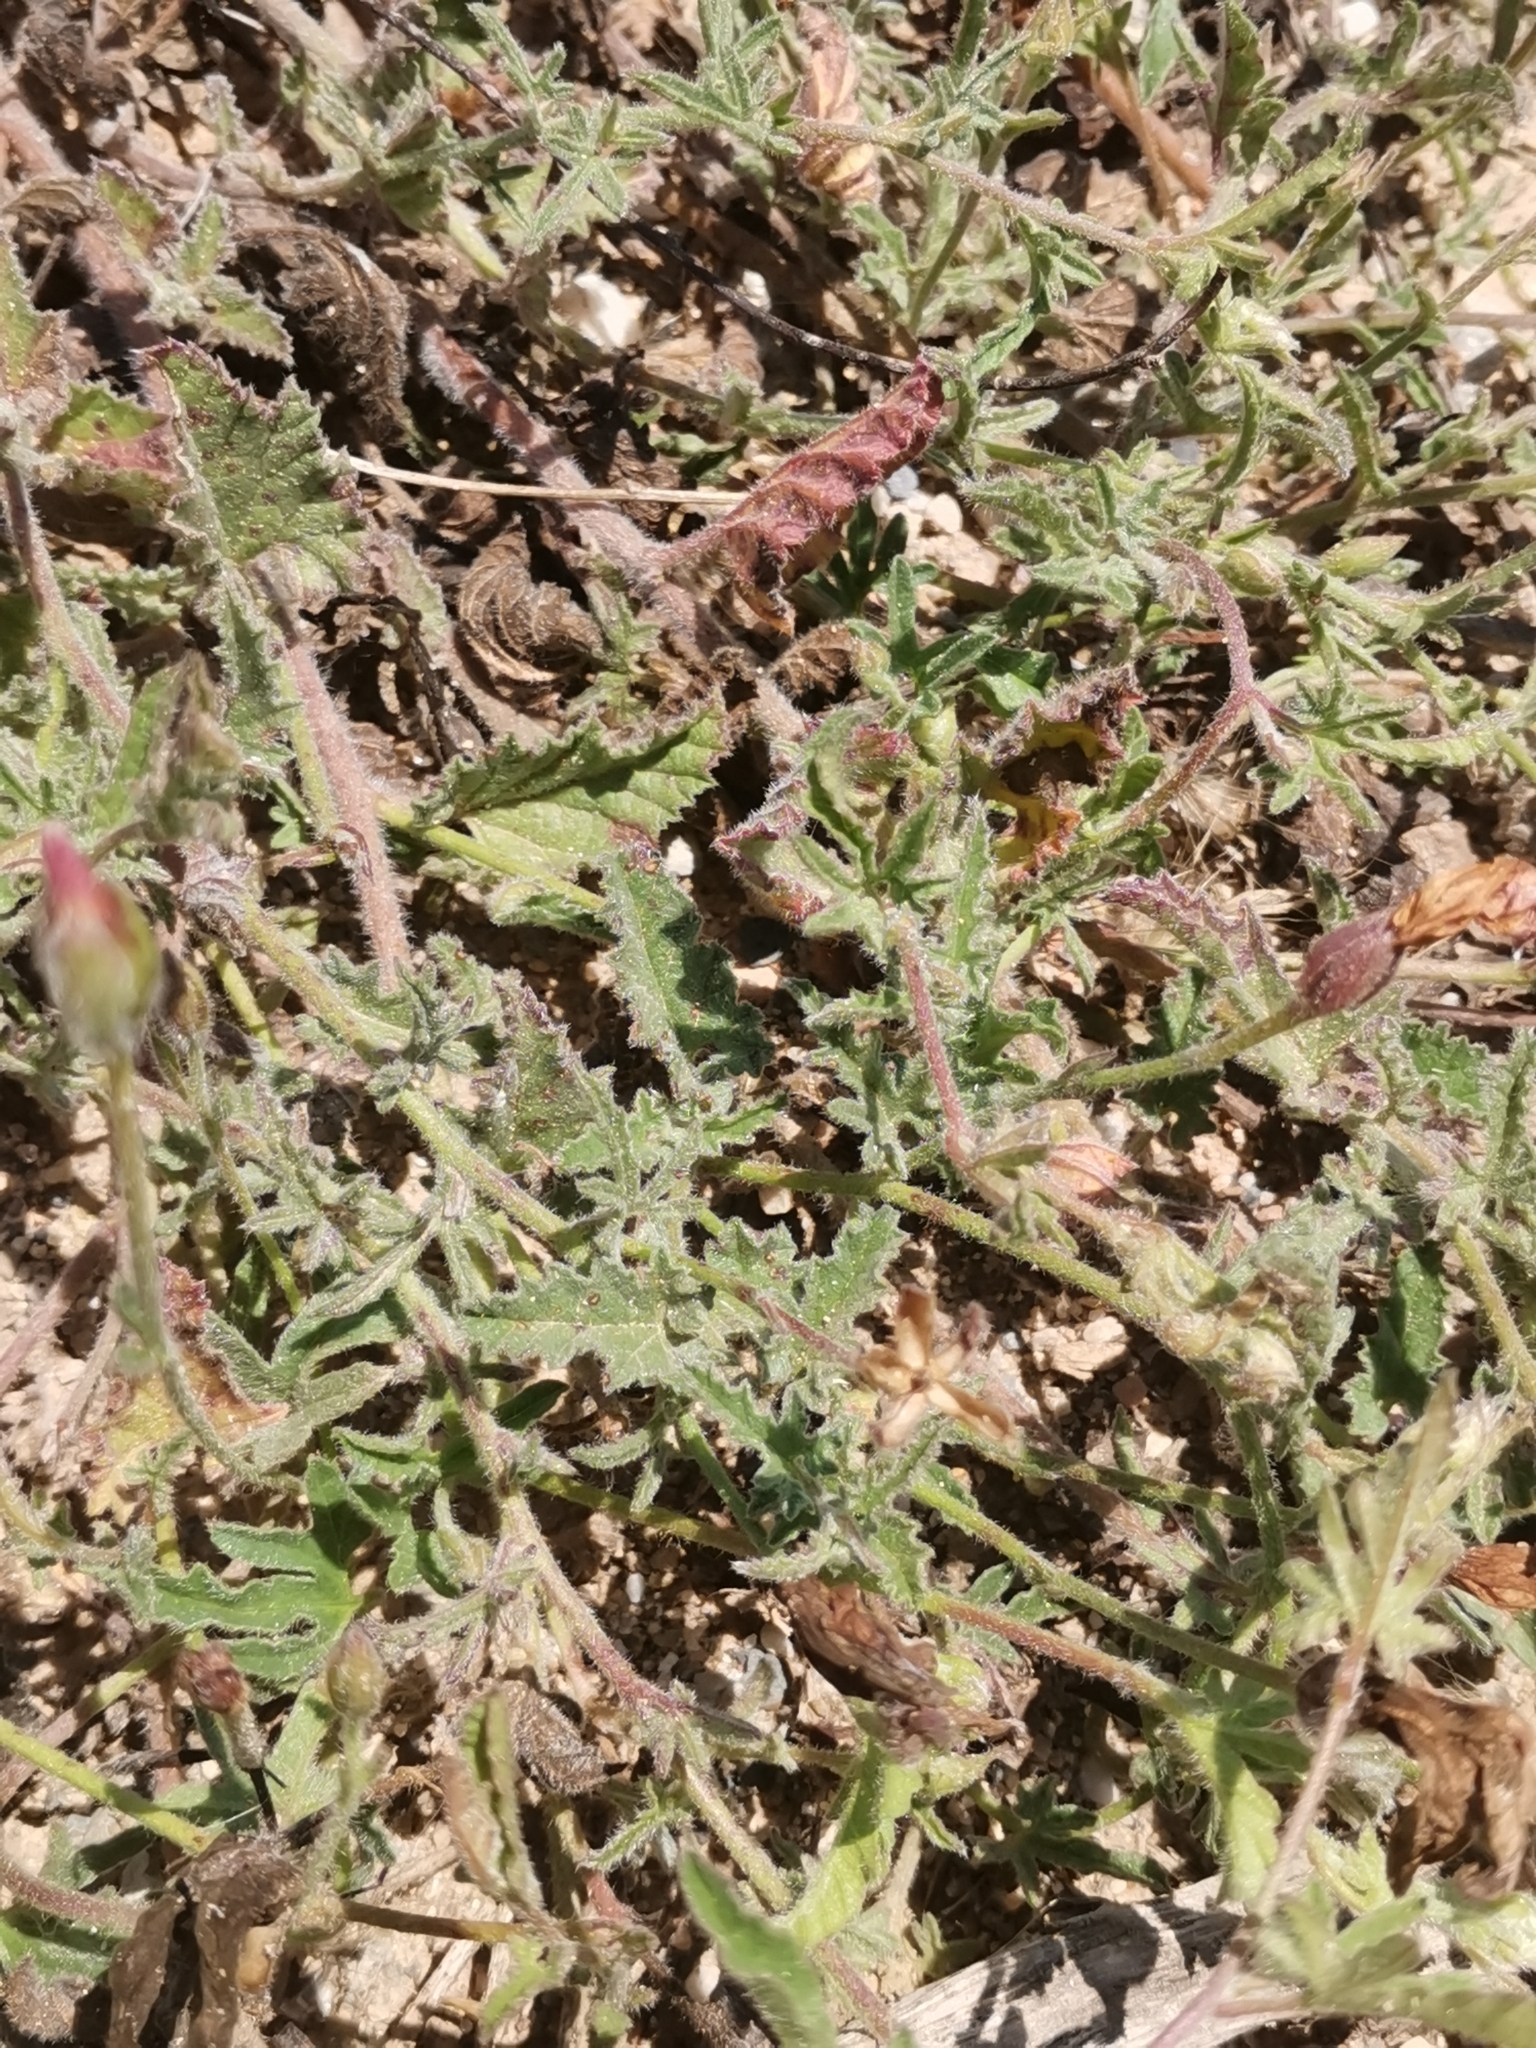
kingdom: Plantae
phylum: Tracheophyta
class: Magnoliopsida
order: Solanales
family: Convolvulaceae
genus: Convolvulus
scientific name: Convolvulus althaeoides
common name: Mallow bindweed
